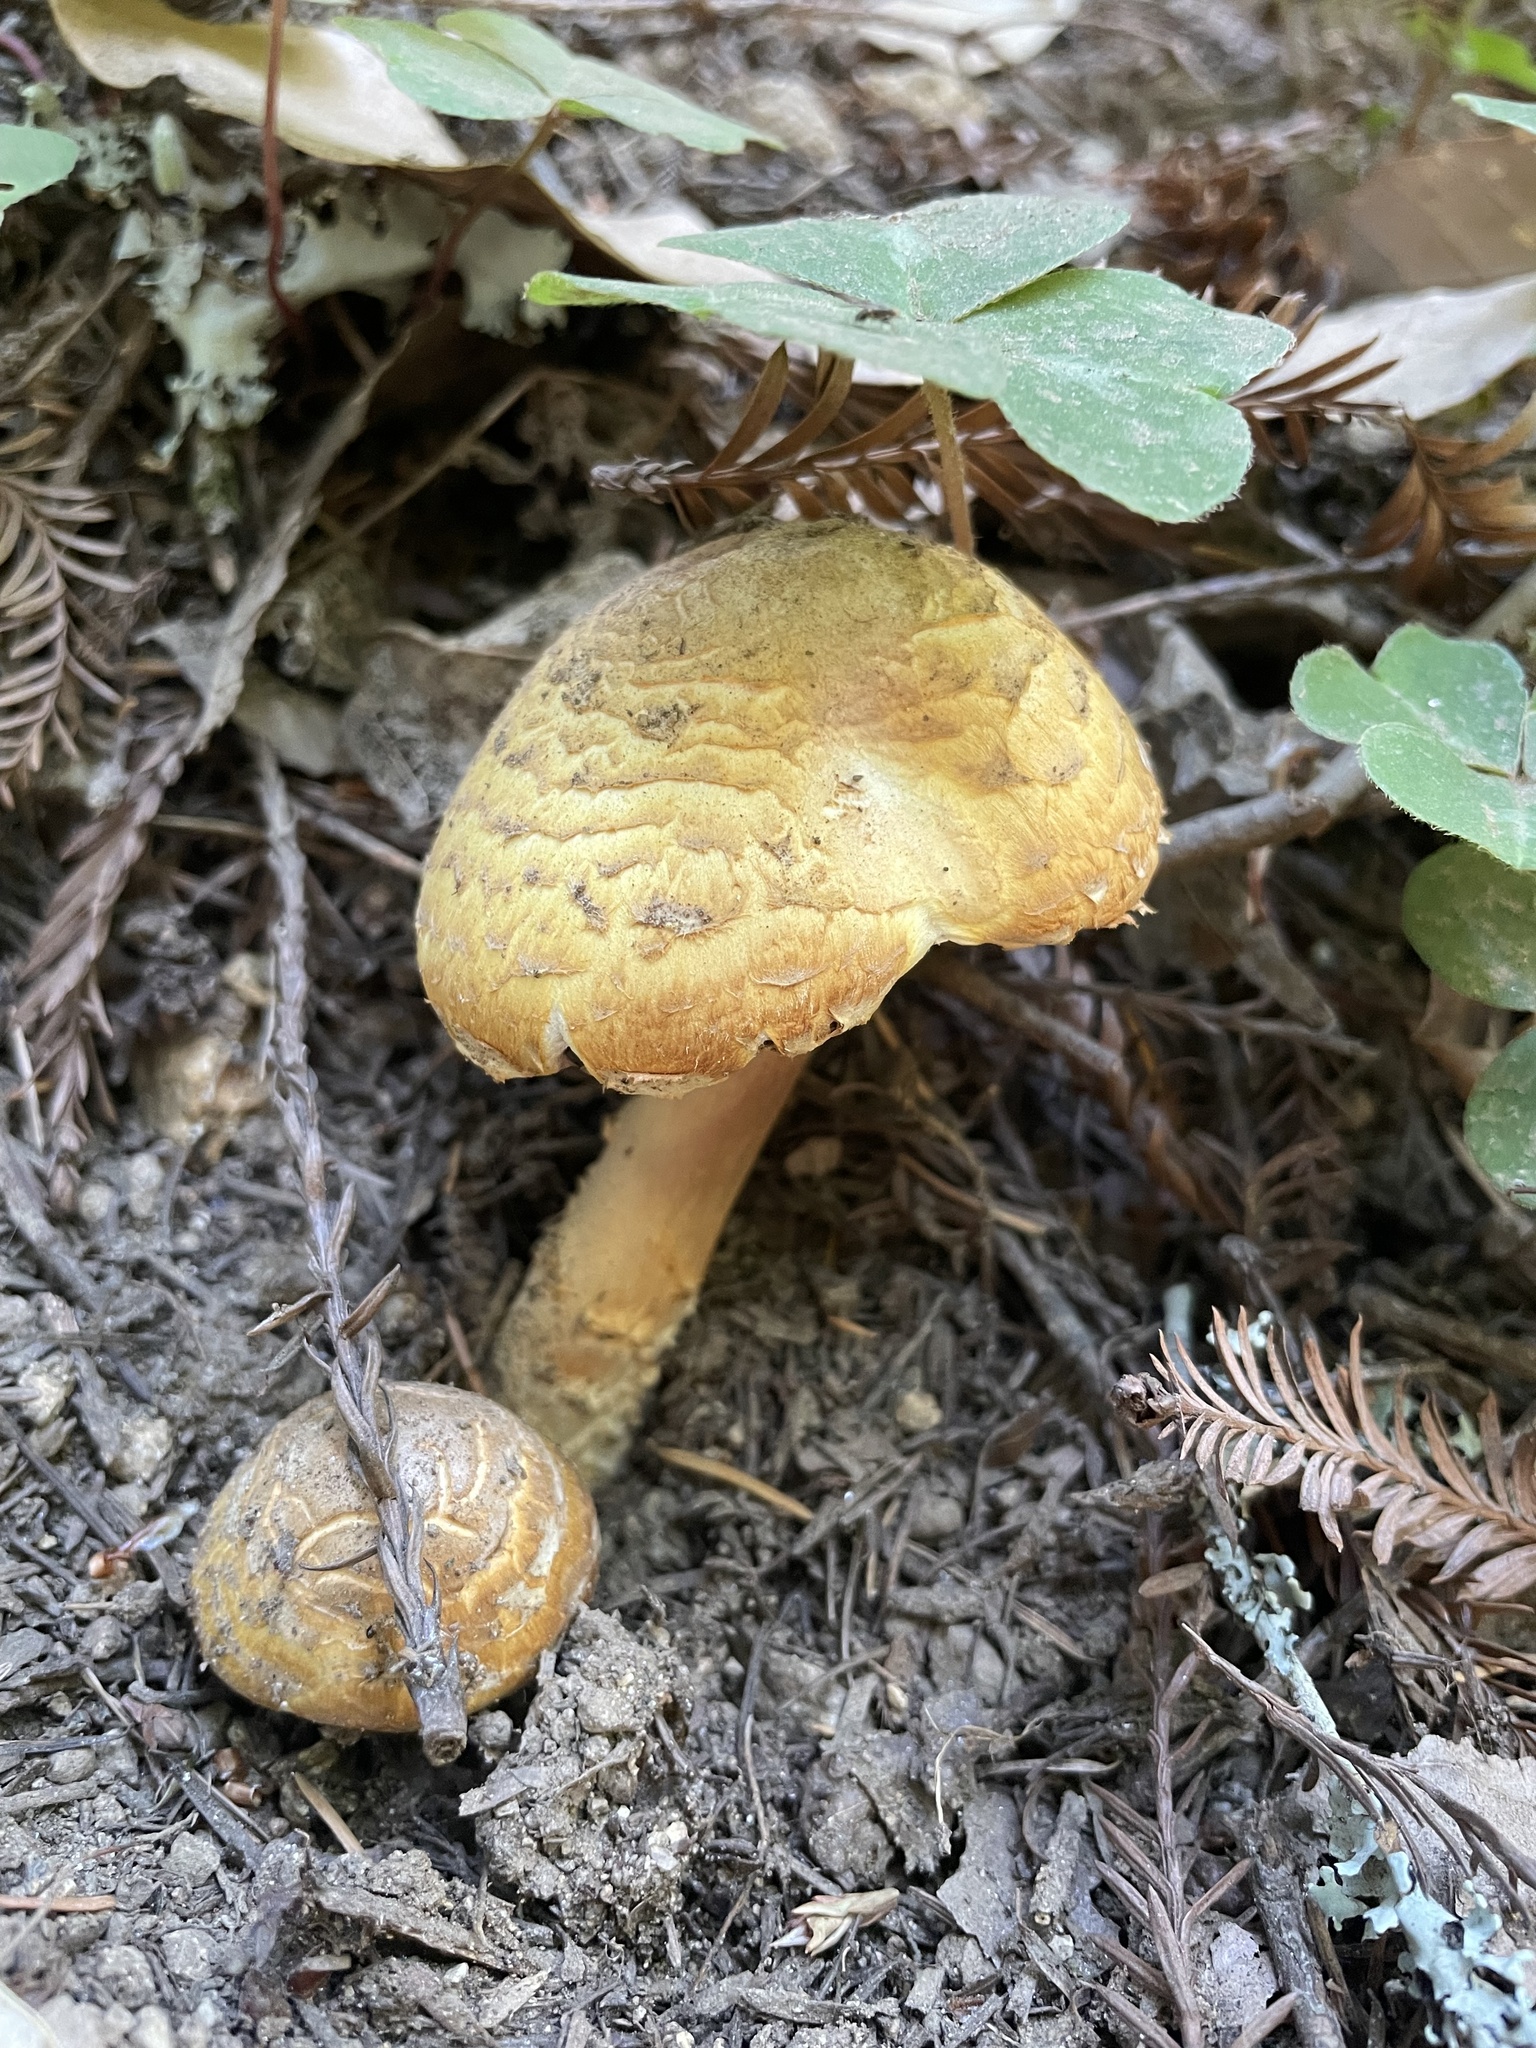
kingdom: Fungi
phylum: Basidiomycota
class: Agaricomycetes
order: Agaricales
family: Agaricaceae
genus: Agaricus
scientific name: Agaricus augustus
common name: Prince
